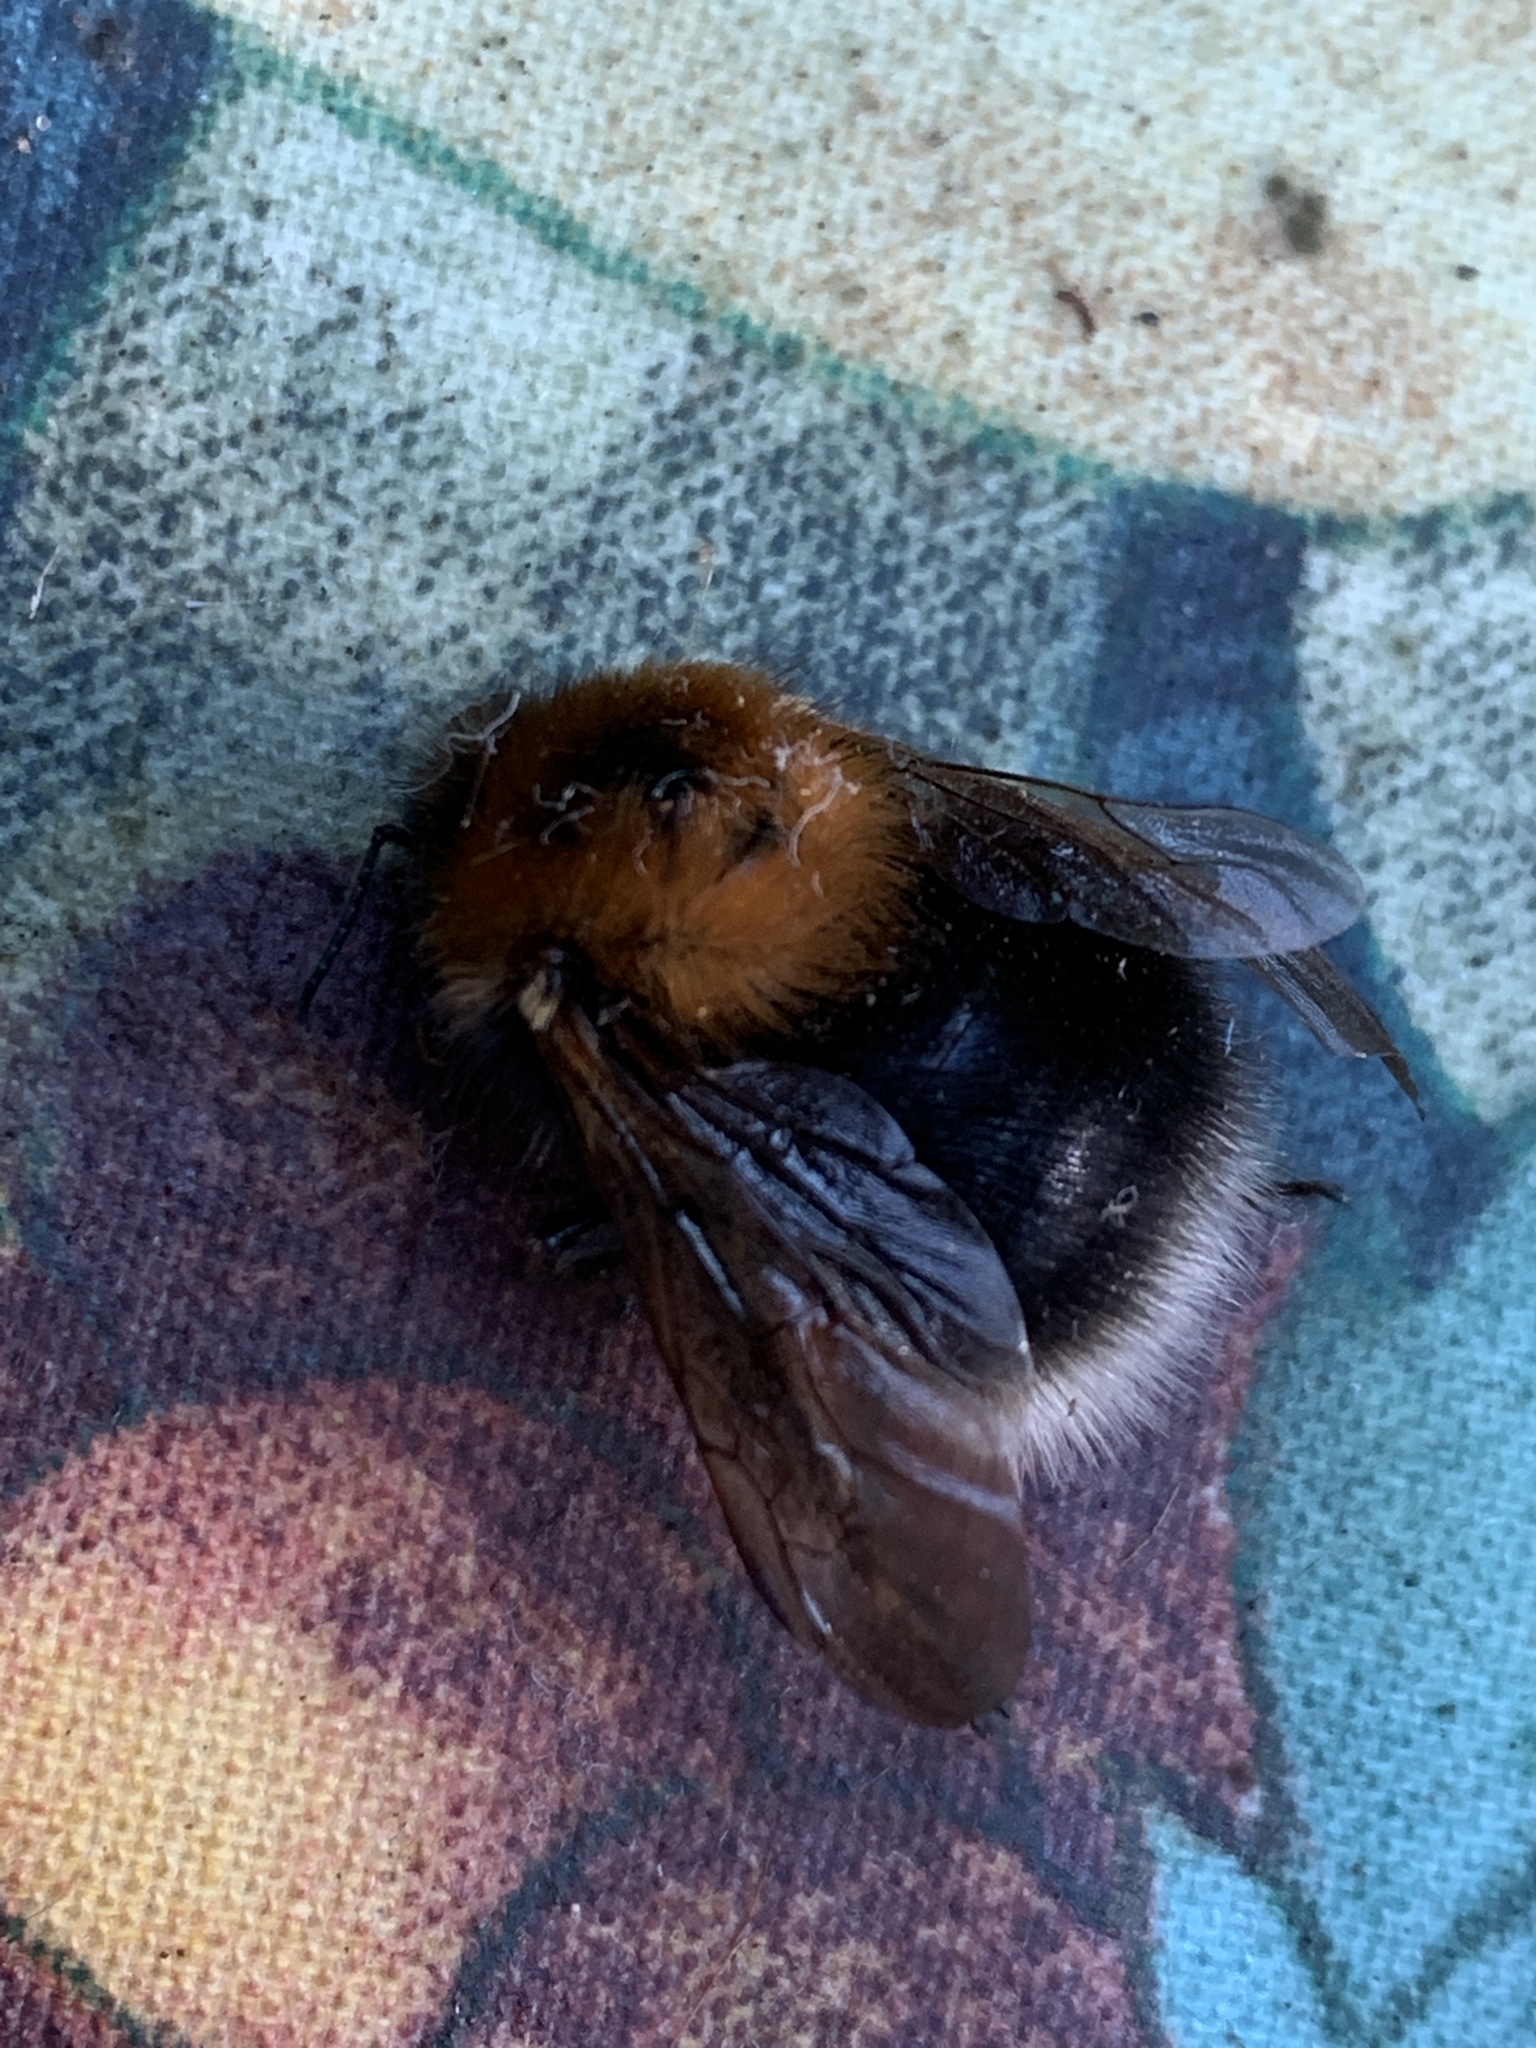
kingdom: Animalia
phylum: Arthropoda
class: Insecta
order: Hymenoptera
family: Apidae
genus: Bombus
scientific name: Bombus hypnorum
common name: New garden bumblebee
